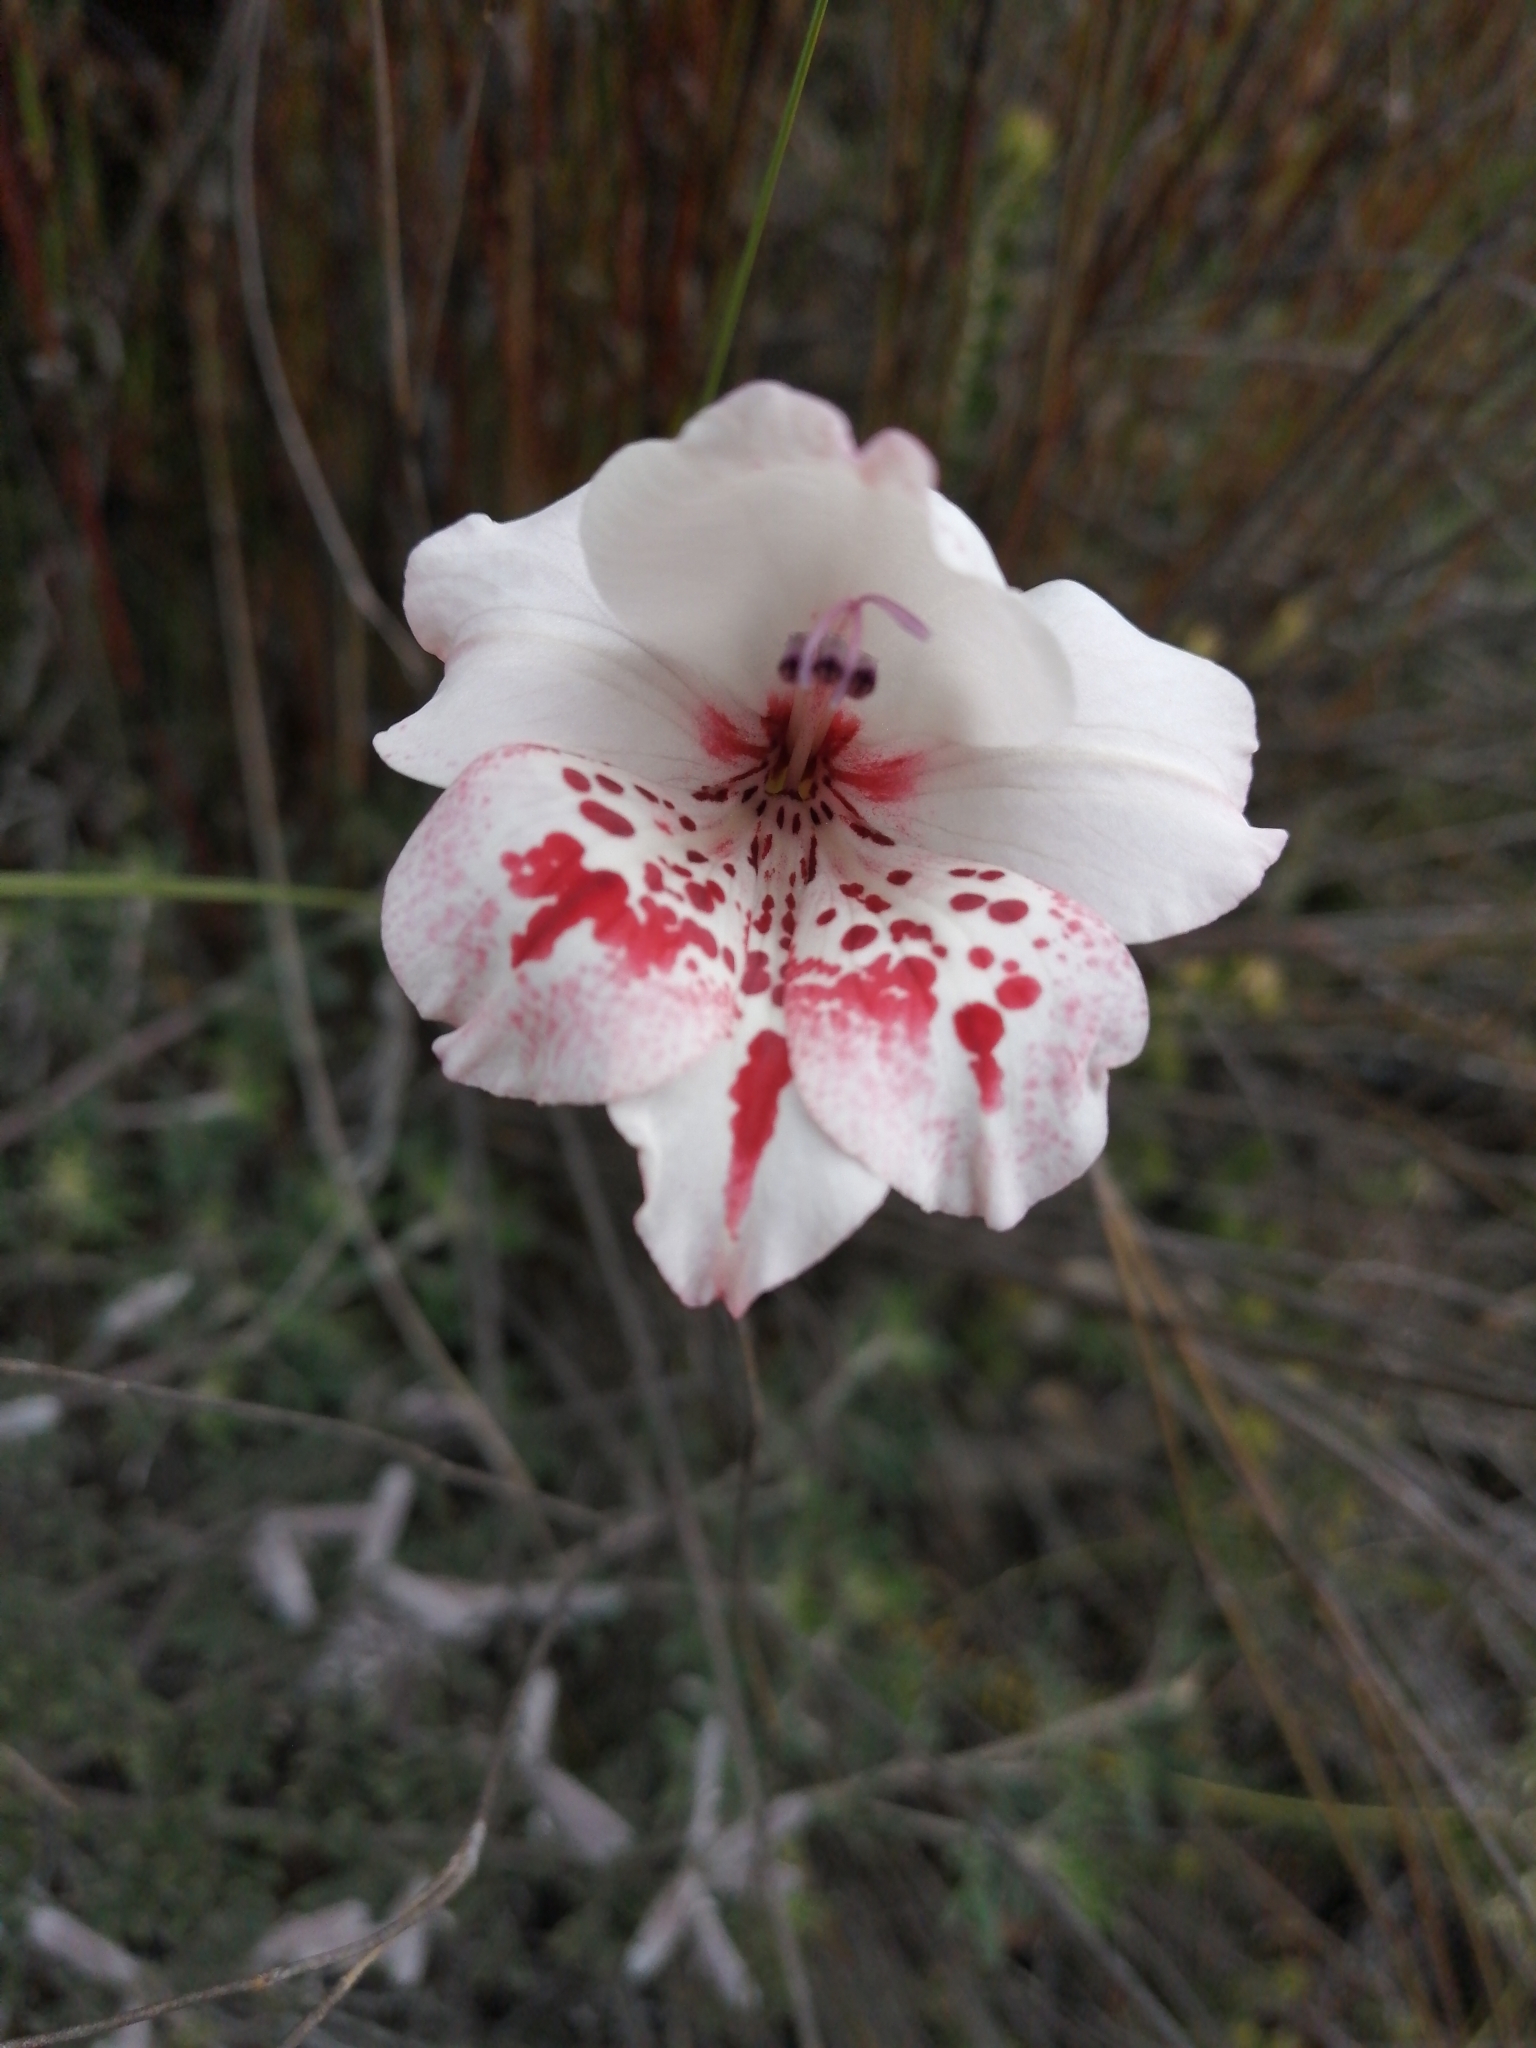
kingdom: Plantae
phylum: Tracheophyta
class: Liliopsida
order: Asparagales
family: Iridaceae
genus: Gladiolus
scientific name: Gladiolus variegatus
